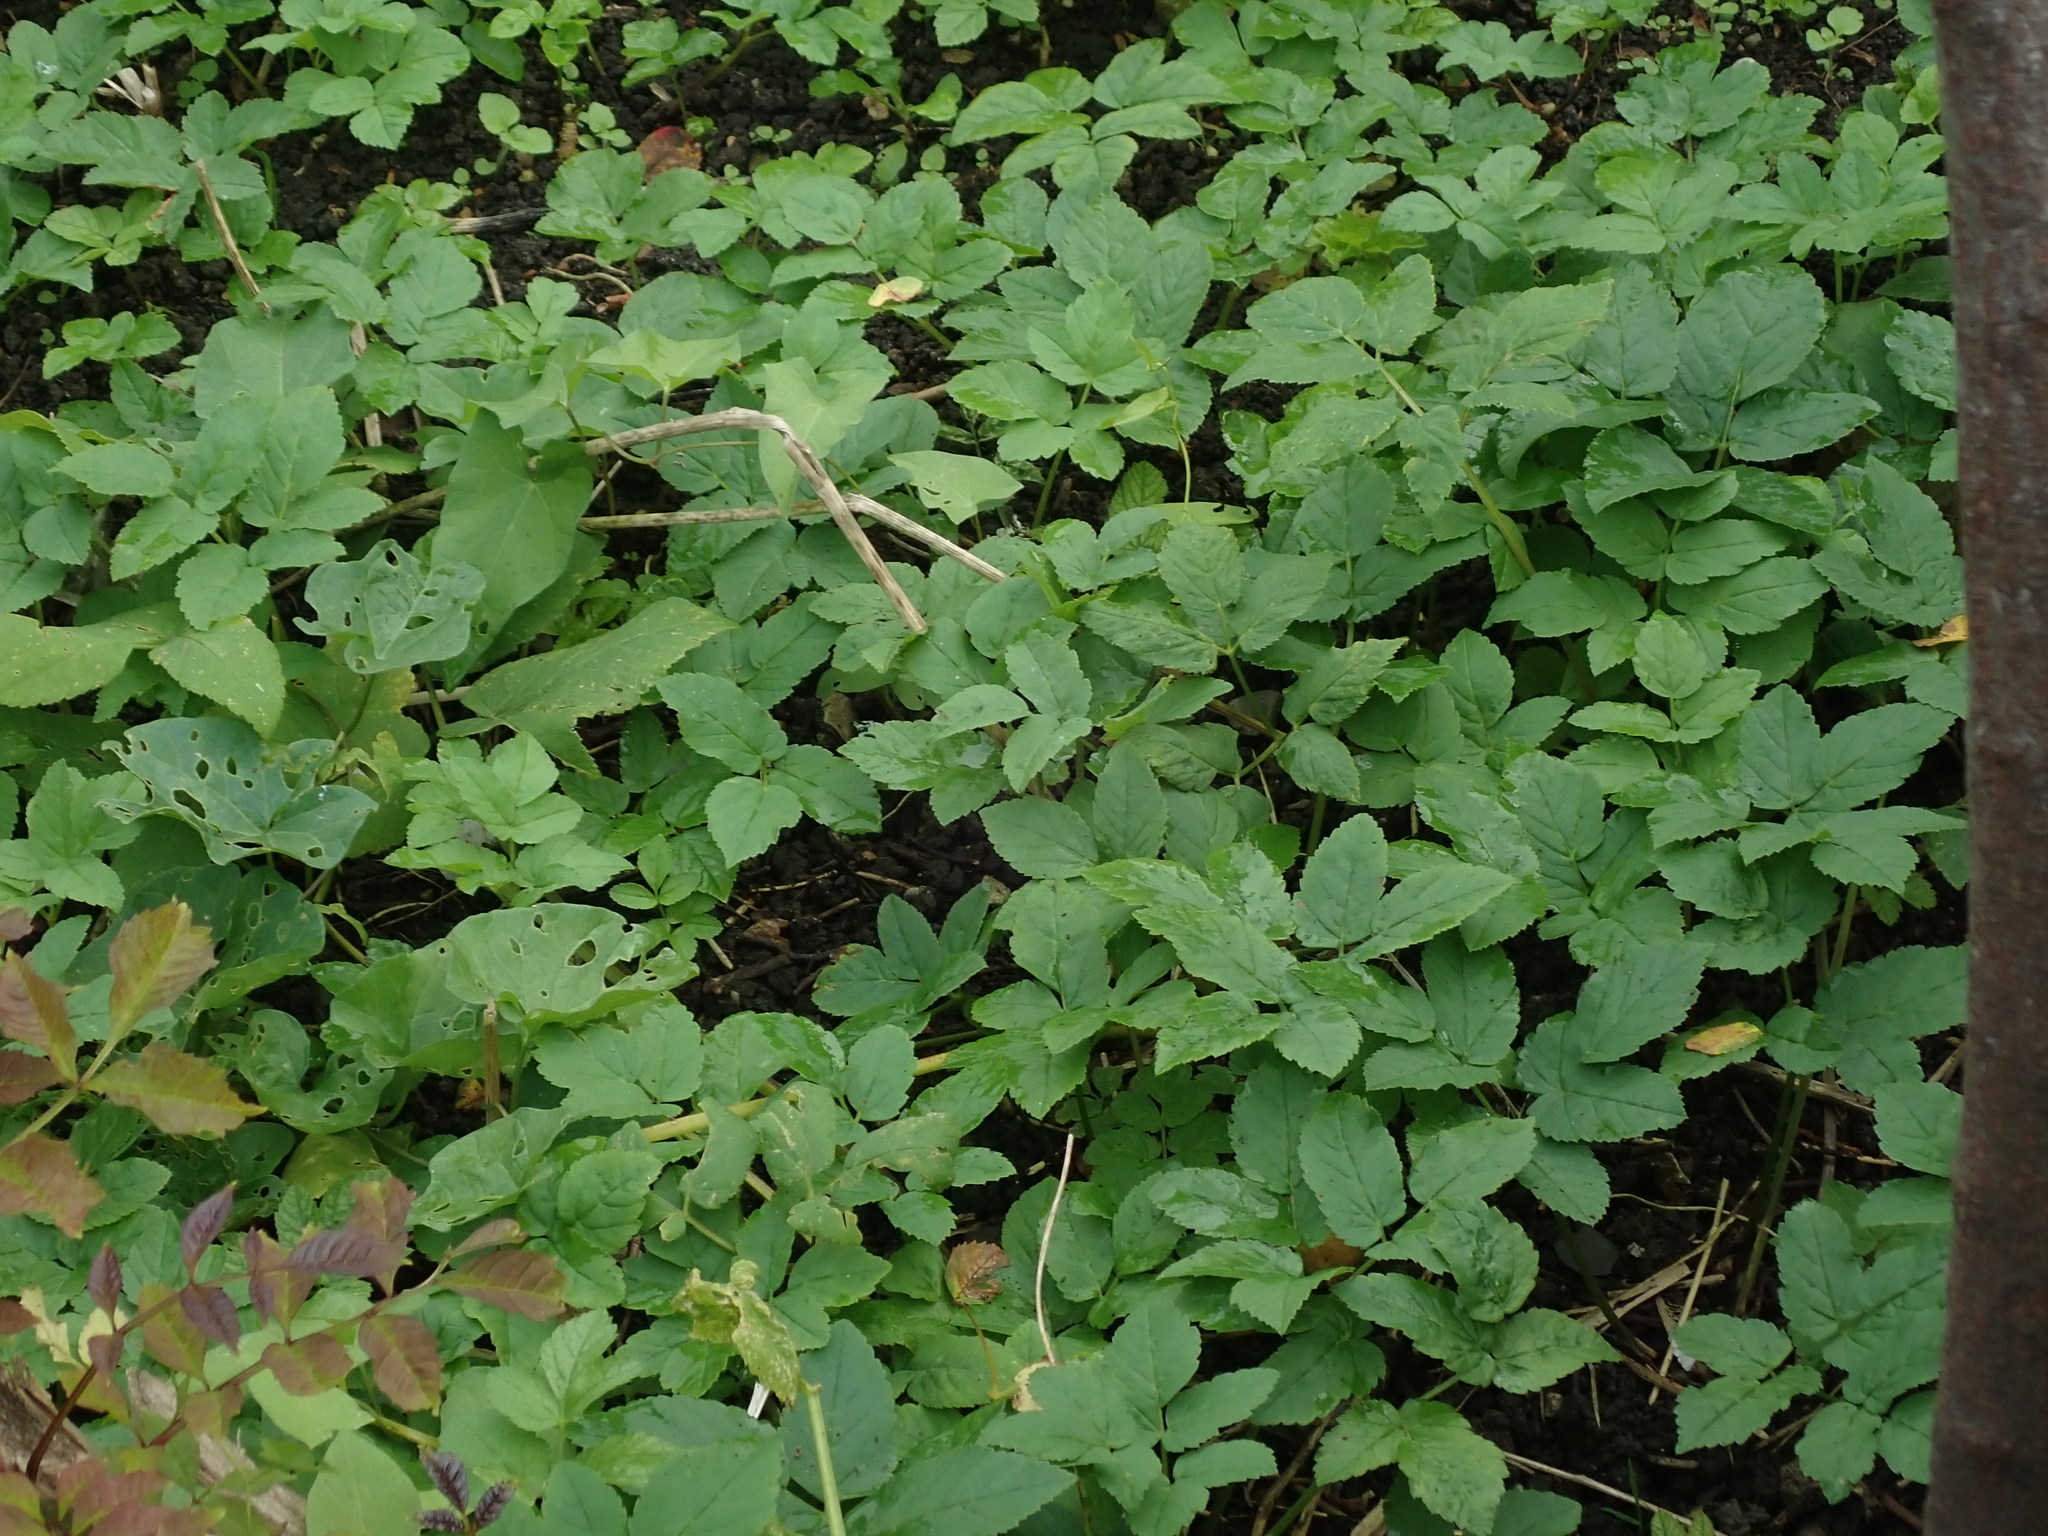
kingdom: Plantae
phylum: Tracheophyta
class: Magnoliopsida
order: Apiales
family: Apiaceae
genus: Aegopodium
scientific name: Aegopodium podagraria
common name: Ground-elder
